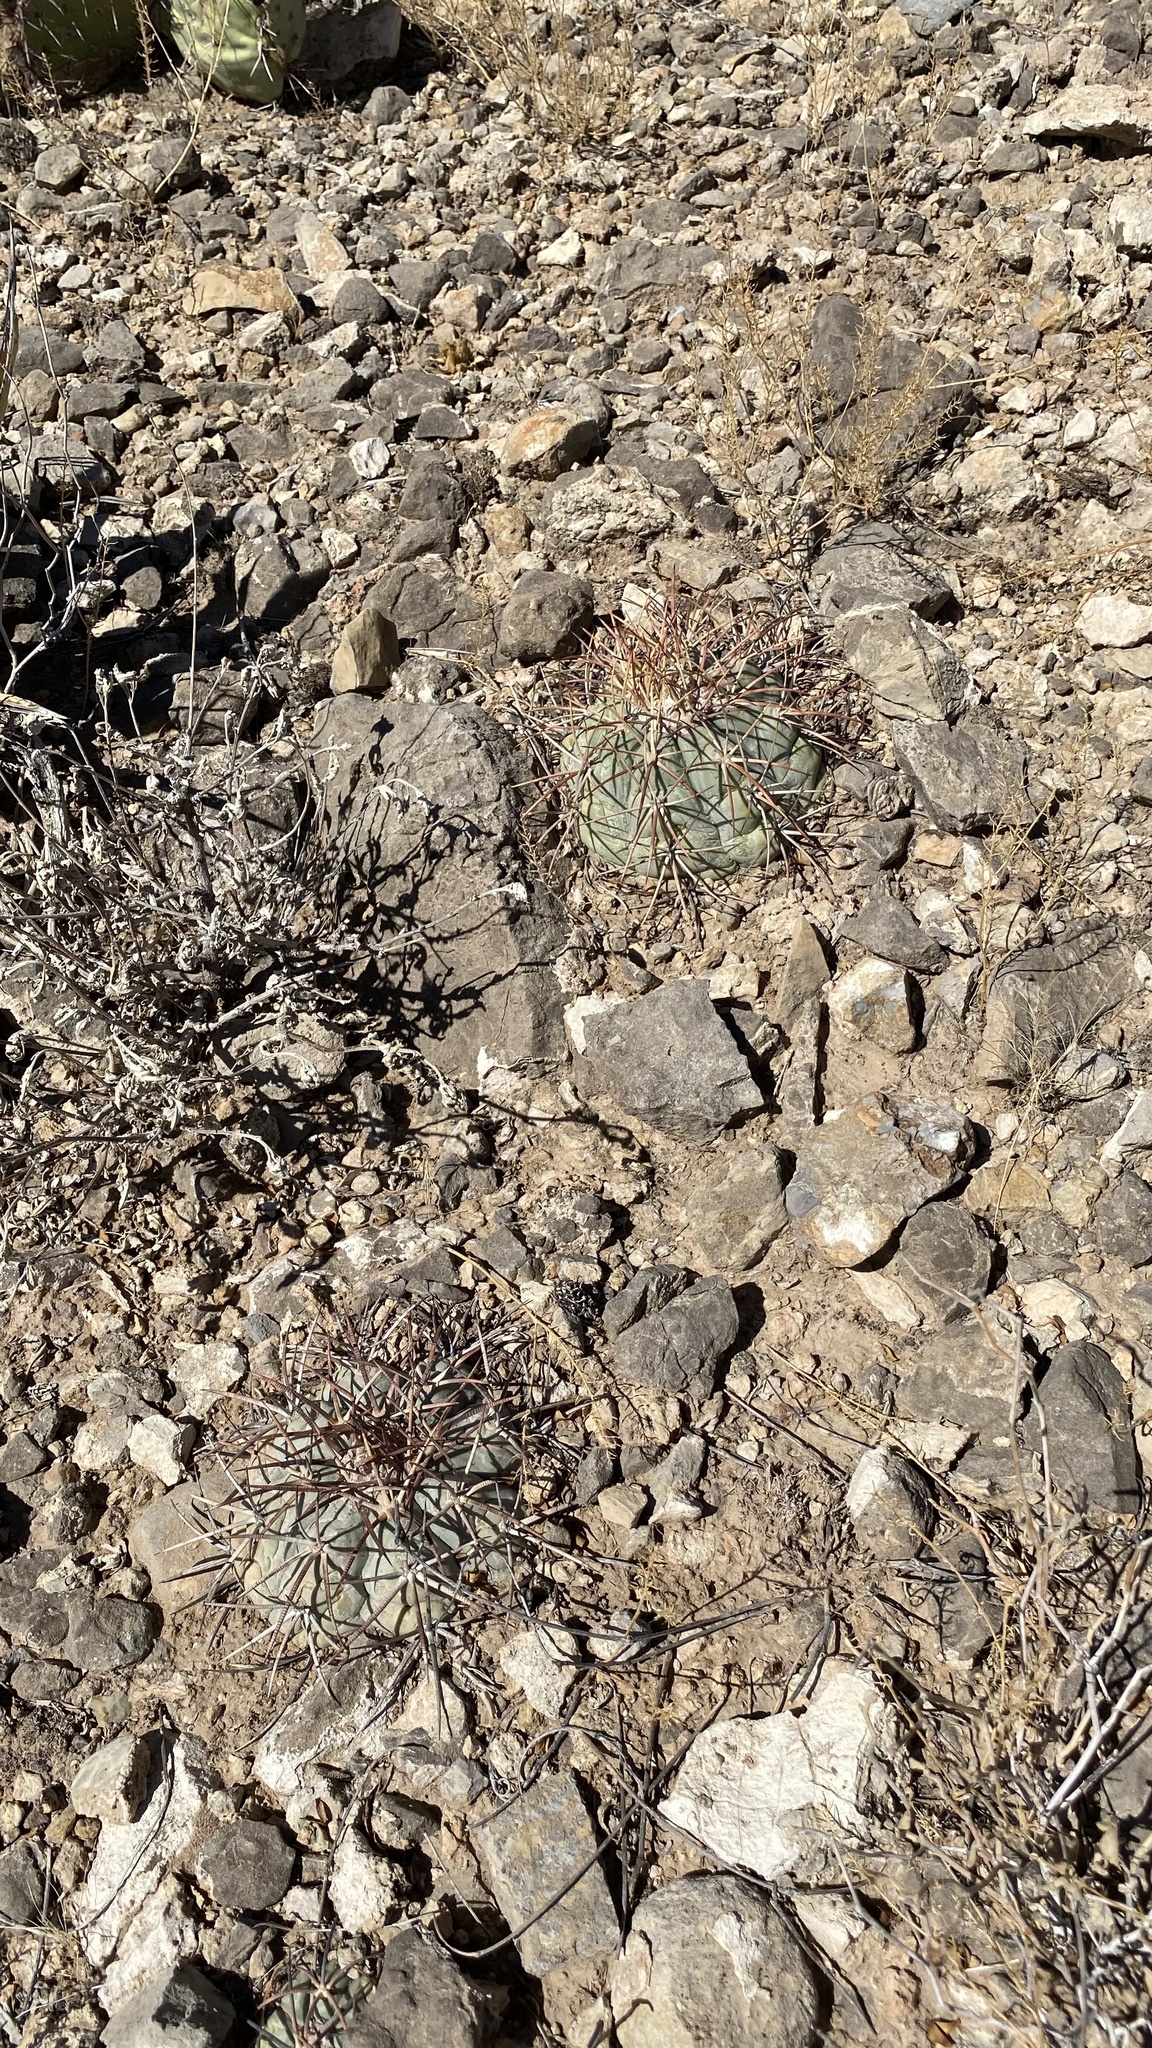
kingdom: Plantae
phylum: Tracheophyta
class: Magnoliopsida
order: Caryophyllales
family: Cactaceae
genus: Echinocactus
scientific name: Echinocactus horizonthalonius
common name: Devilshead
